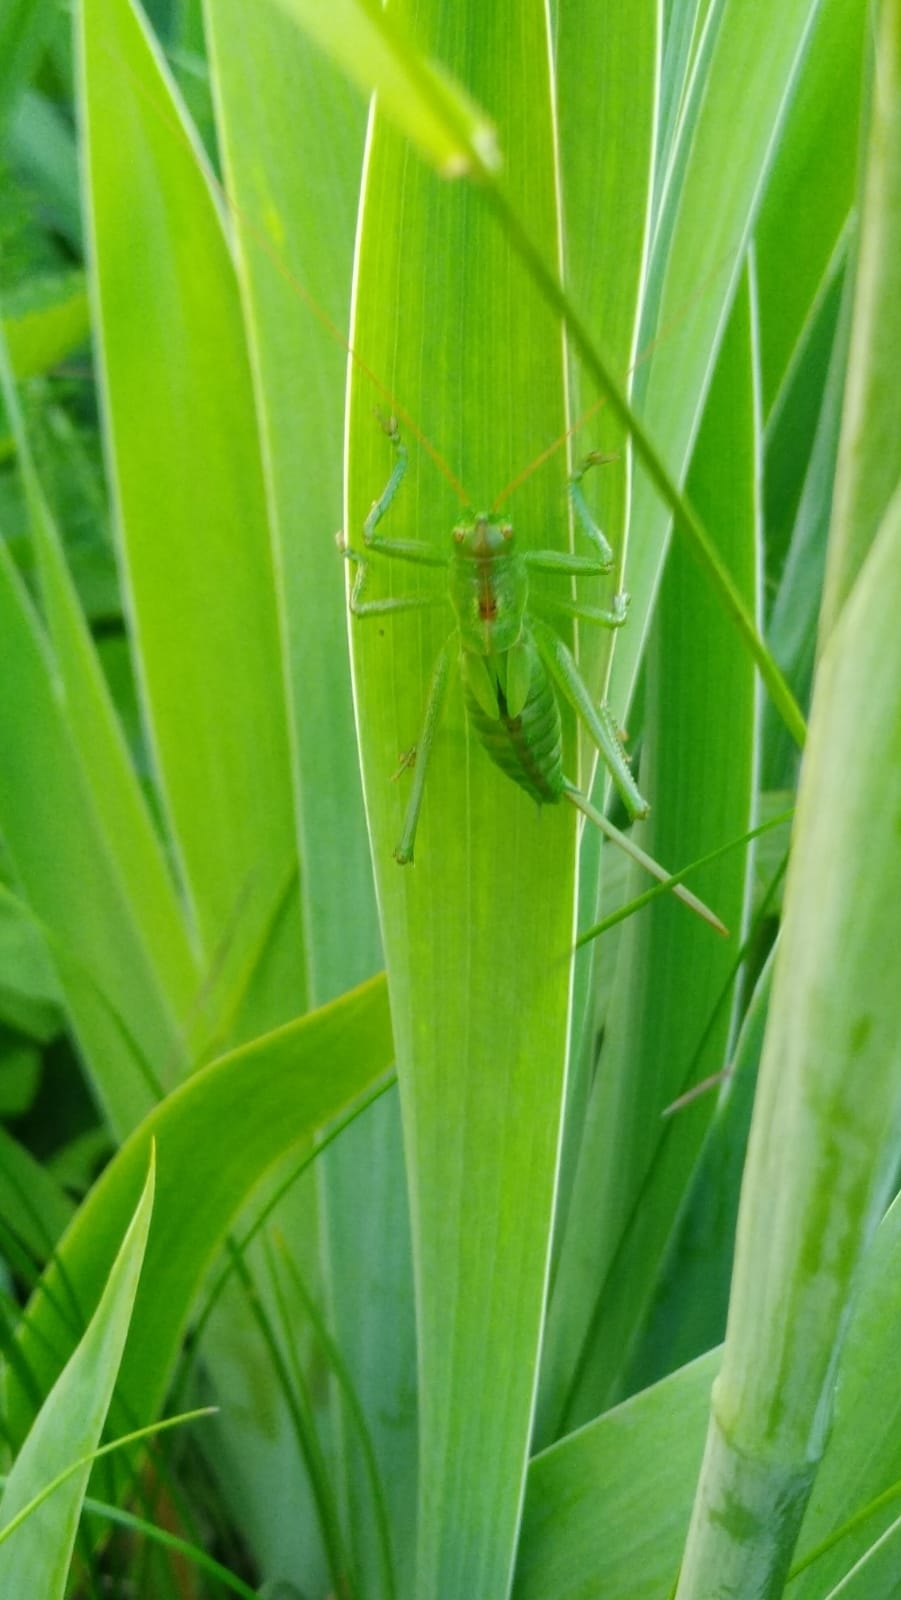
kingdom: Animalia
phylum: Arthropoda
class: Insecta
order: Orthoptera
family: Tettigoniidae
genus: Tettigonia
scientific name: Tettigonia cantans
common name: Upland green bush-cricket
